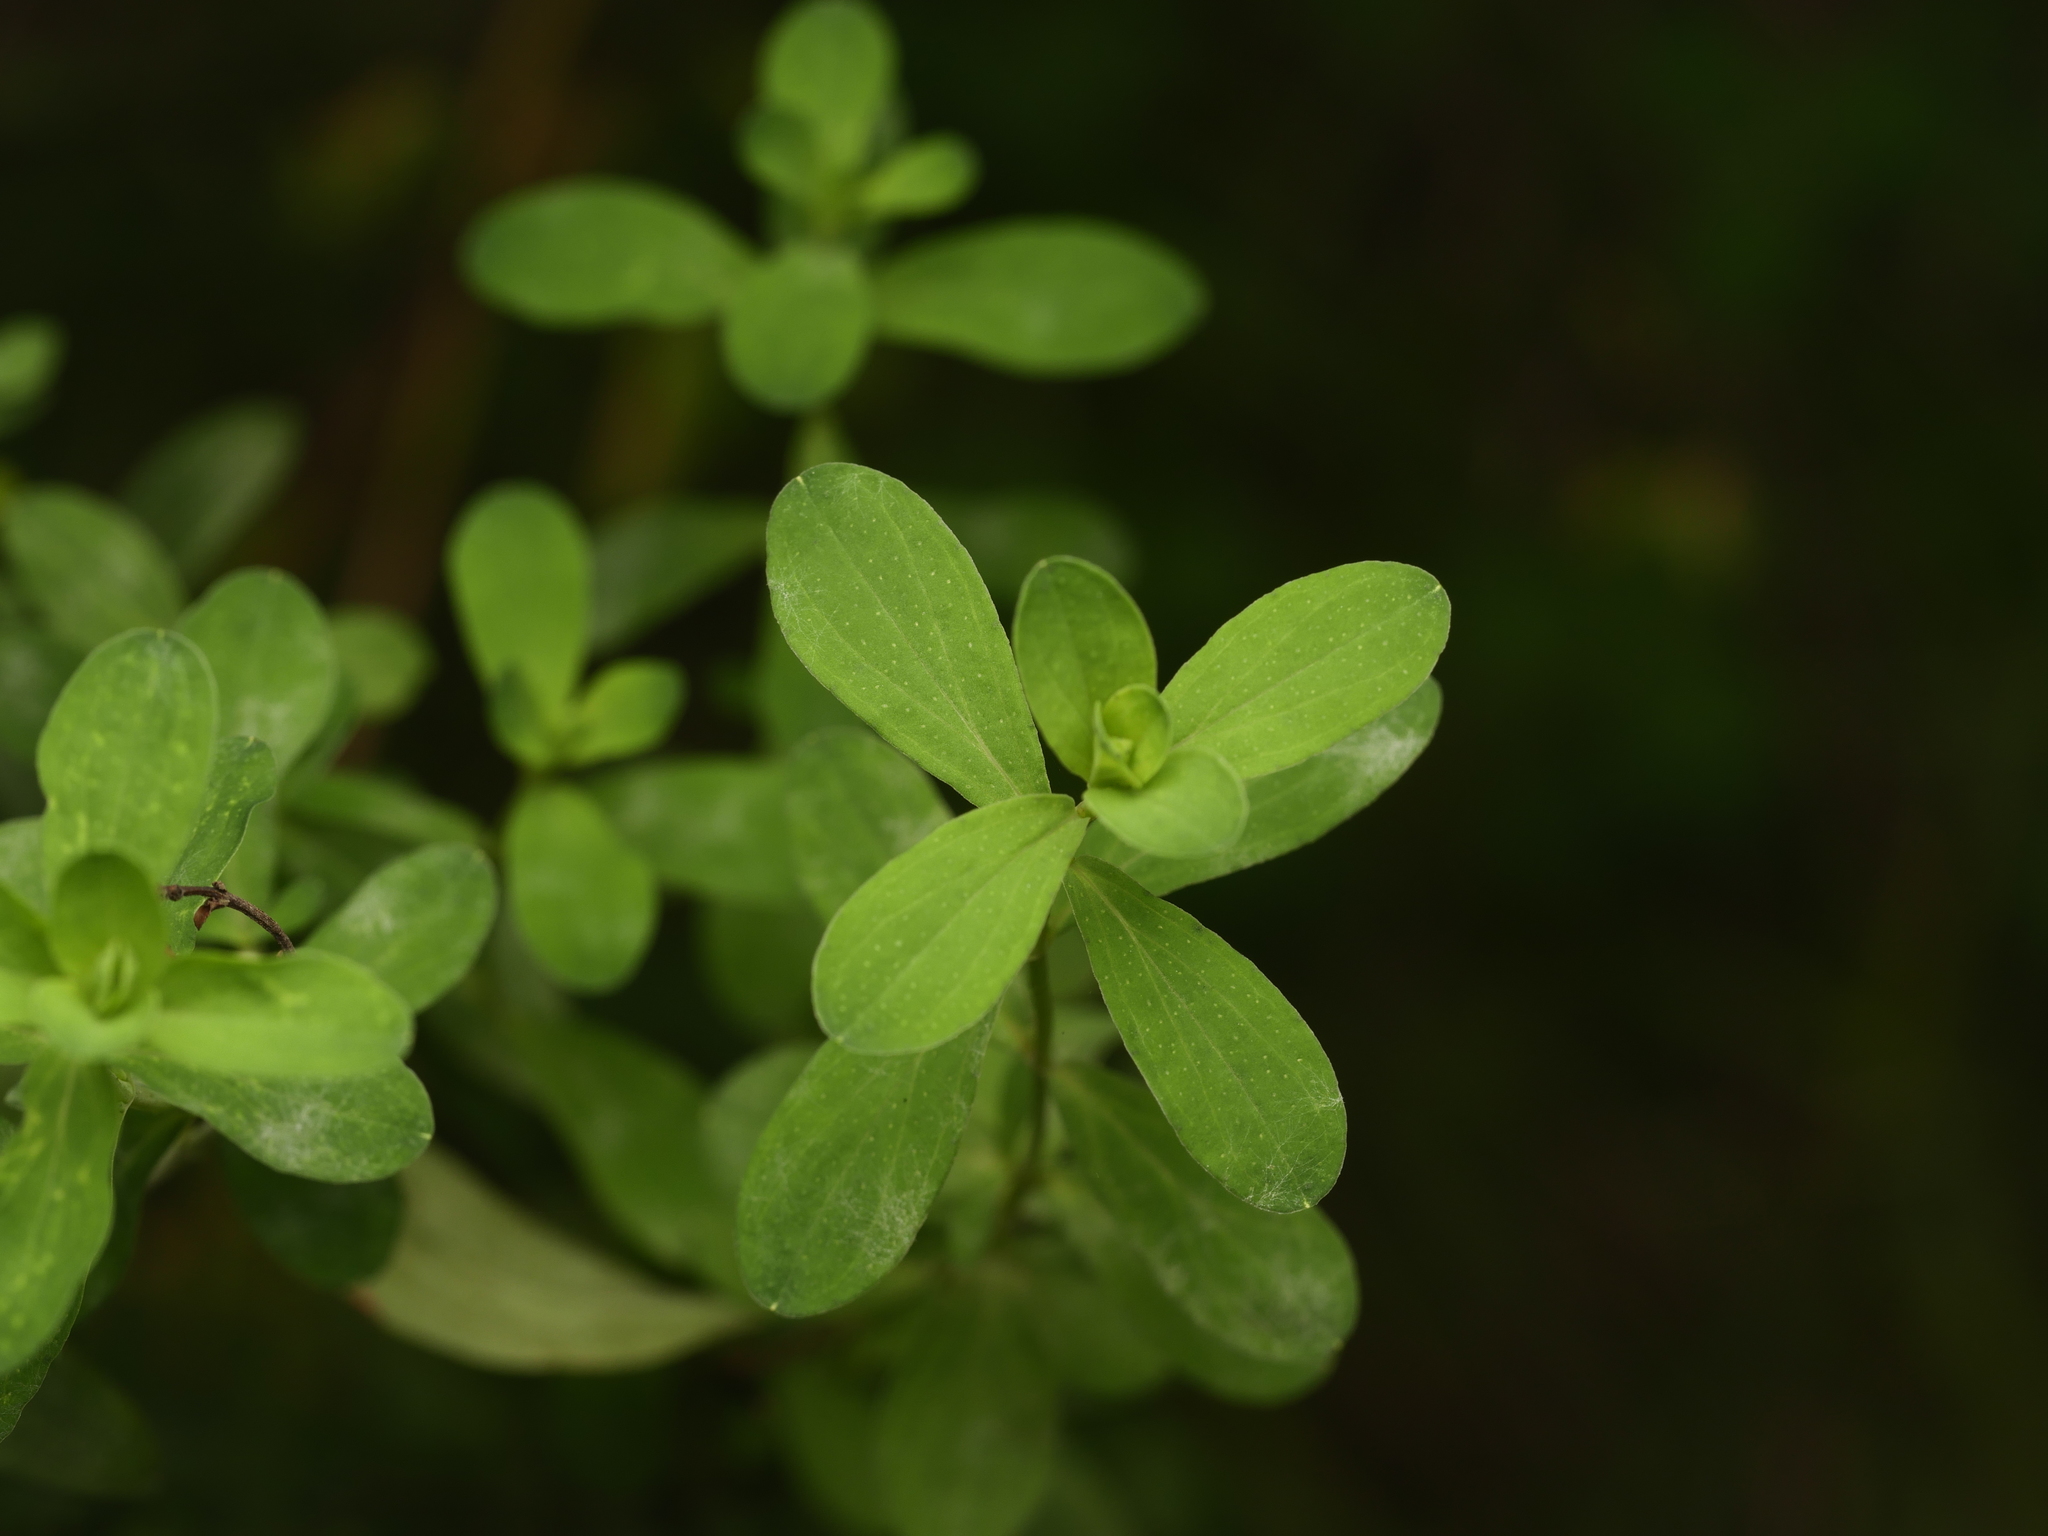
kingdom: Plantae
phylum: Tracheophyta
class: Magnoliopsida
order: Malpighiales
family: Hypericaceae
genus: Hypericum
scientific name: Hypericum perforatum
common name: Common st. johnswort
